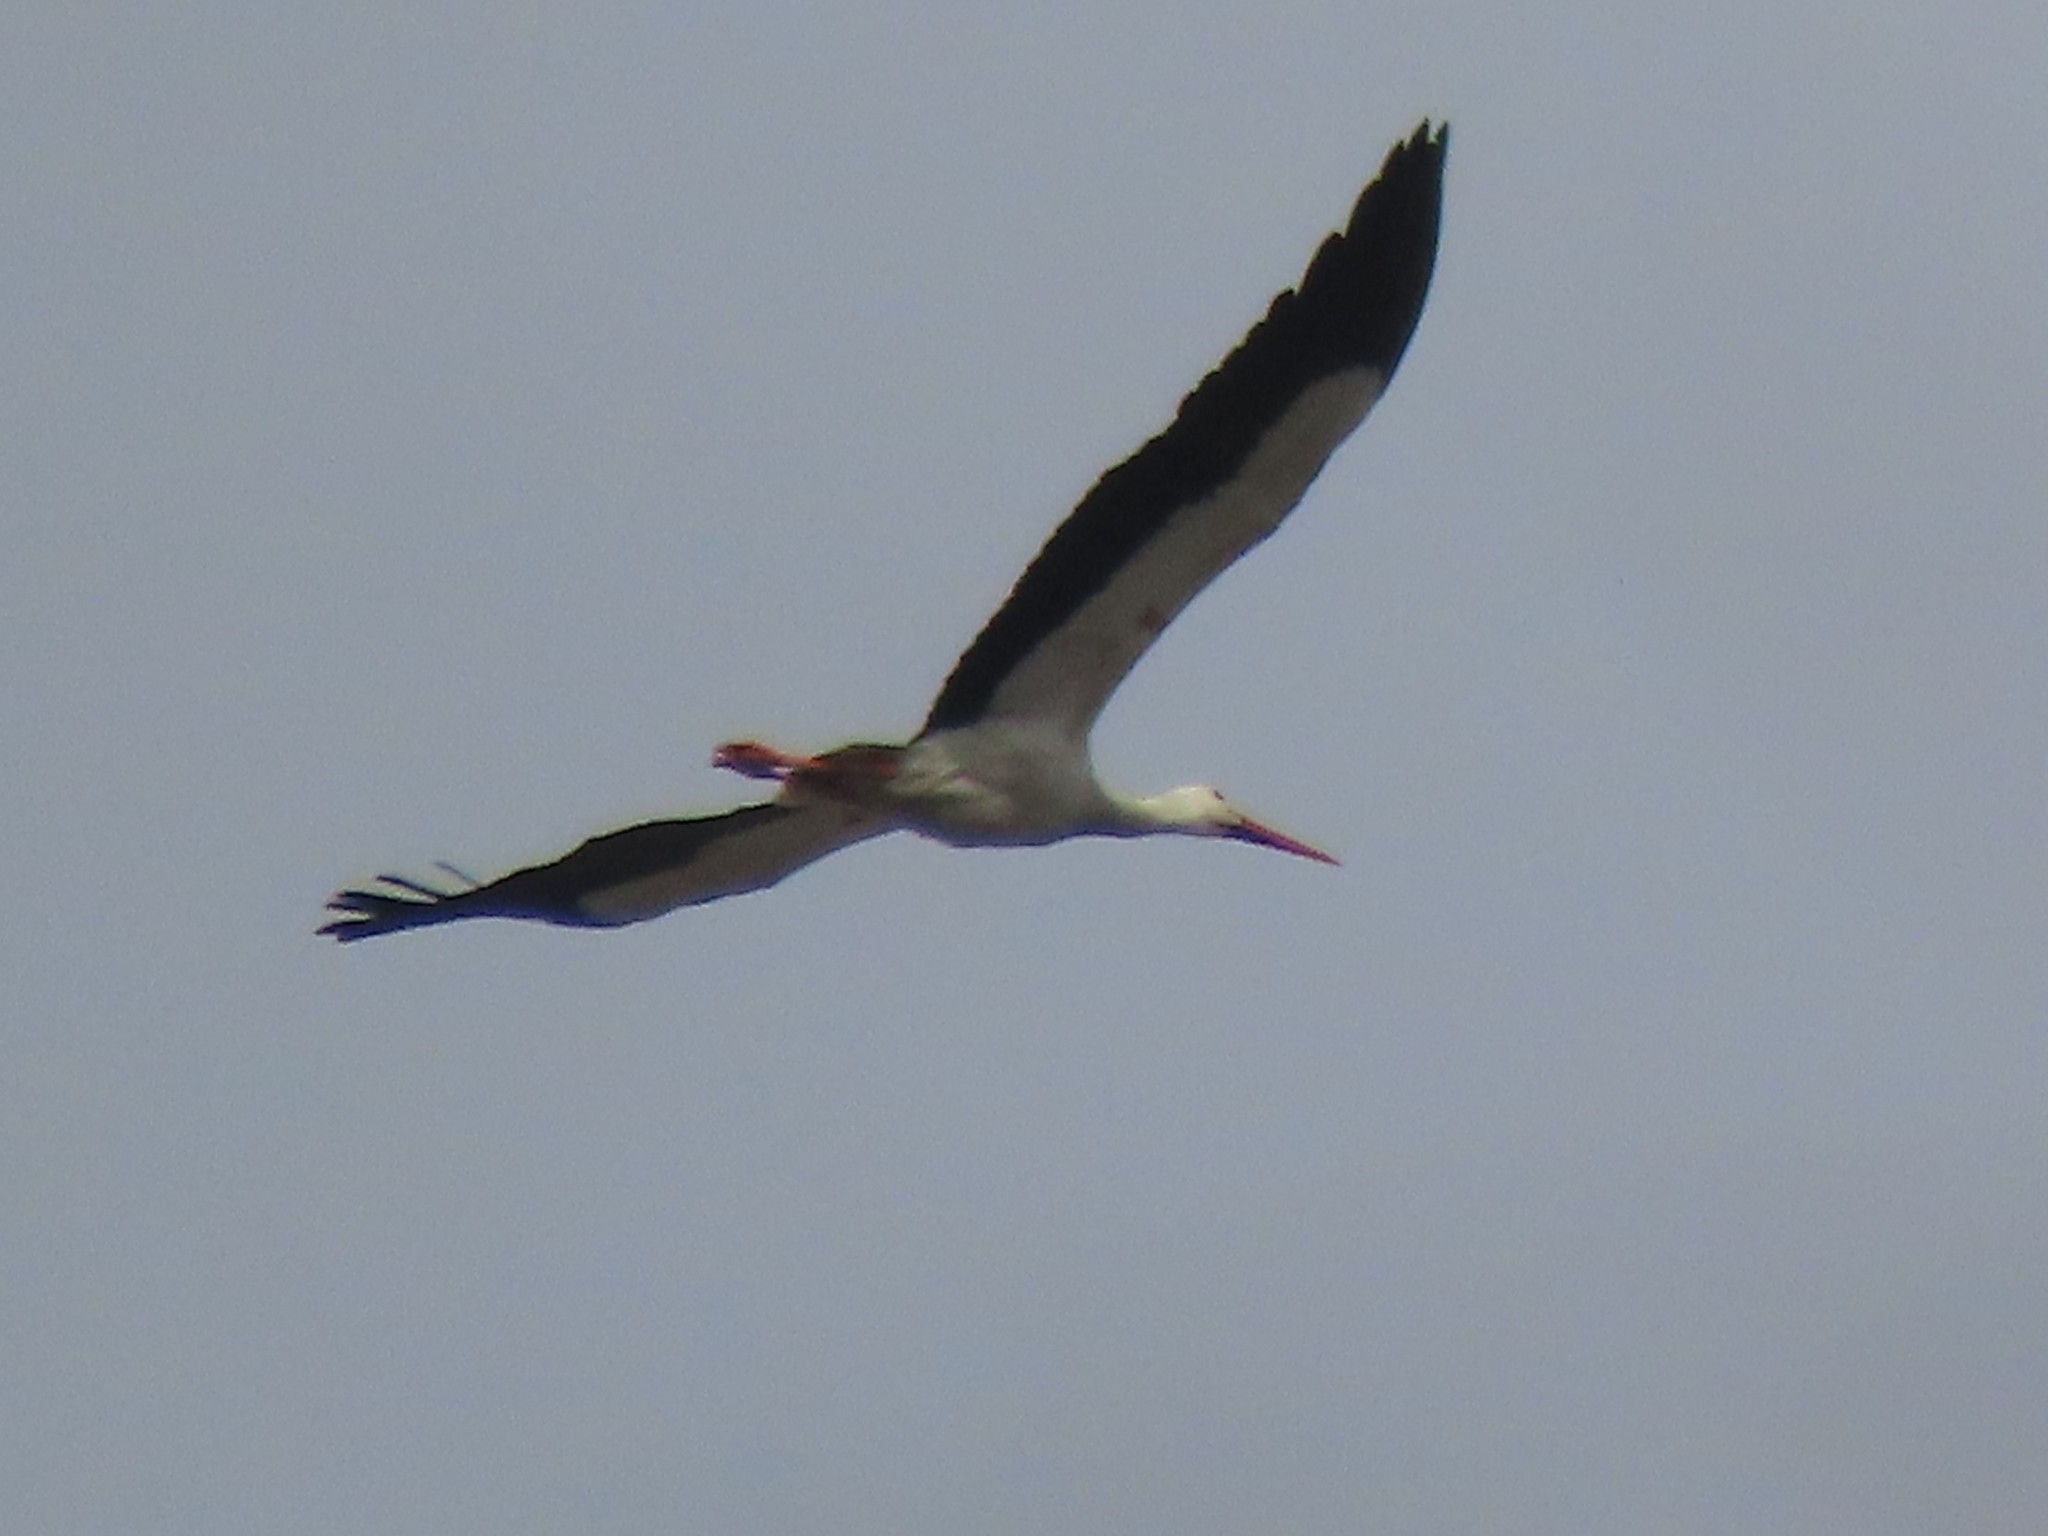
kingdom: Animalia
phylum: Chordata
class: Aves
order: Ciconiiformes
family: Ciconiidae
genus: Ciconia
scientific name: Ciconia ciconia
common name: White stork
